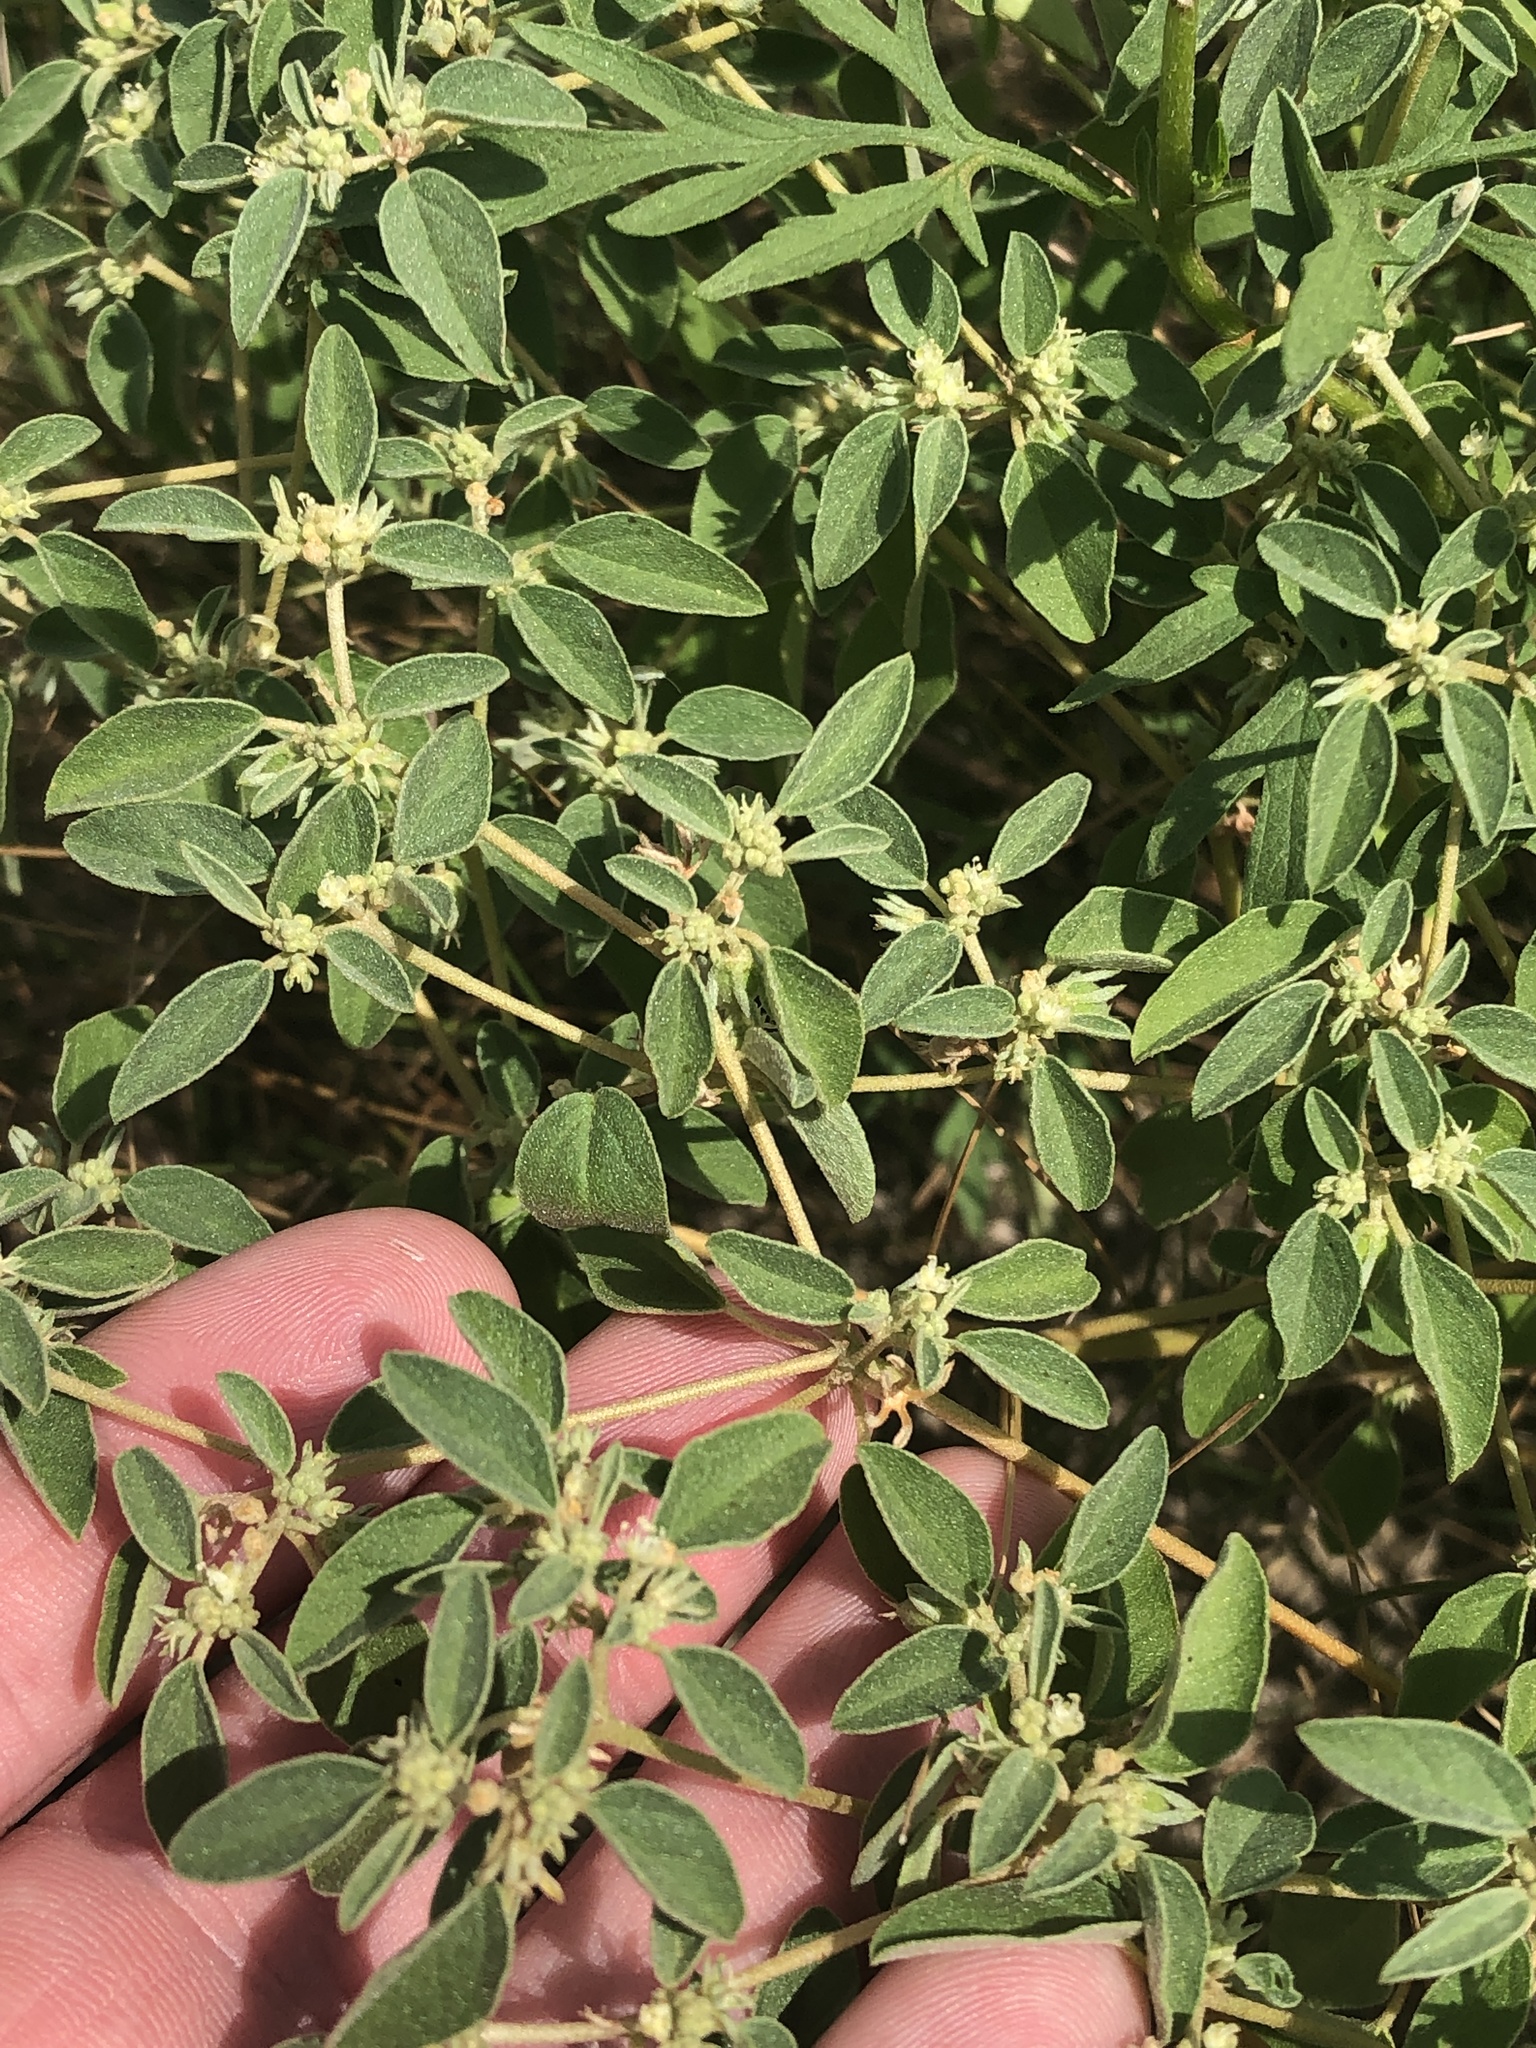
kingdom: Plantae
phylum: Tracheophyta
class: Magnoliopsida
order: Malpighiales
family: Euphorbiaceae
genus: Croton
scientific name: Croton monanthogynus
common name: One-seed croton
